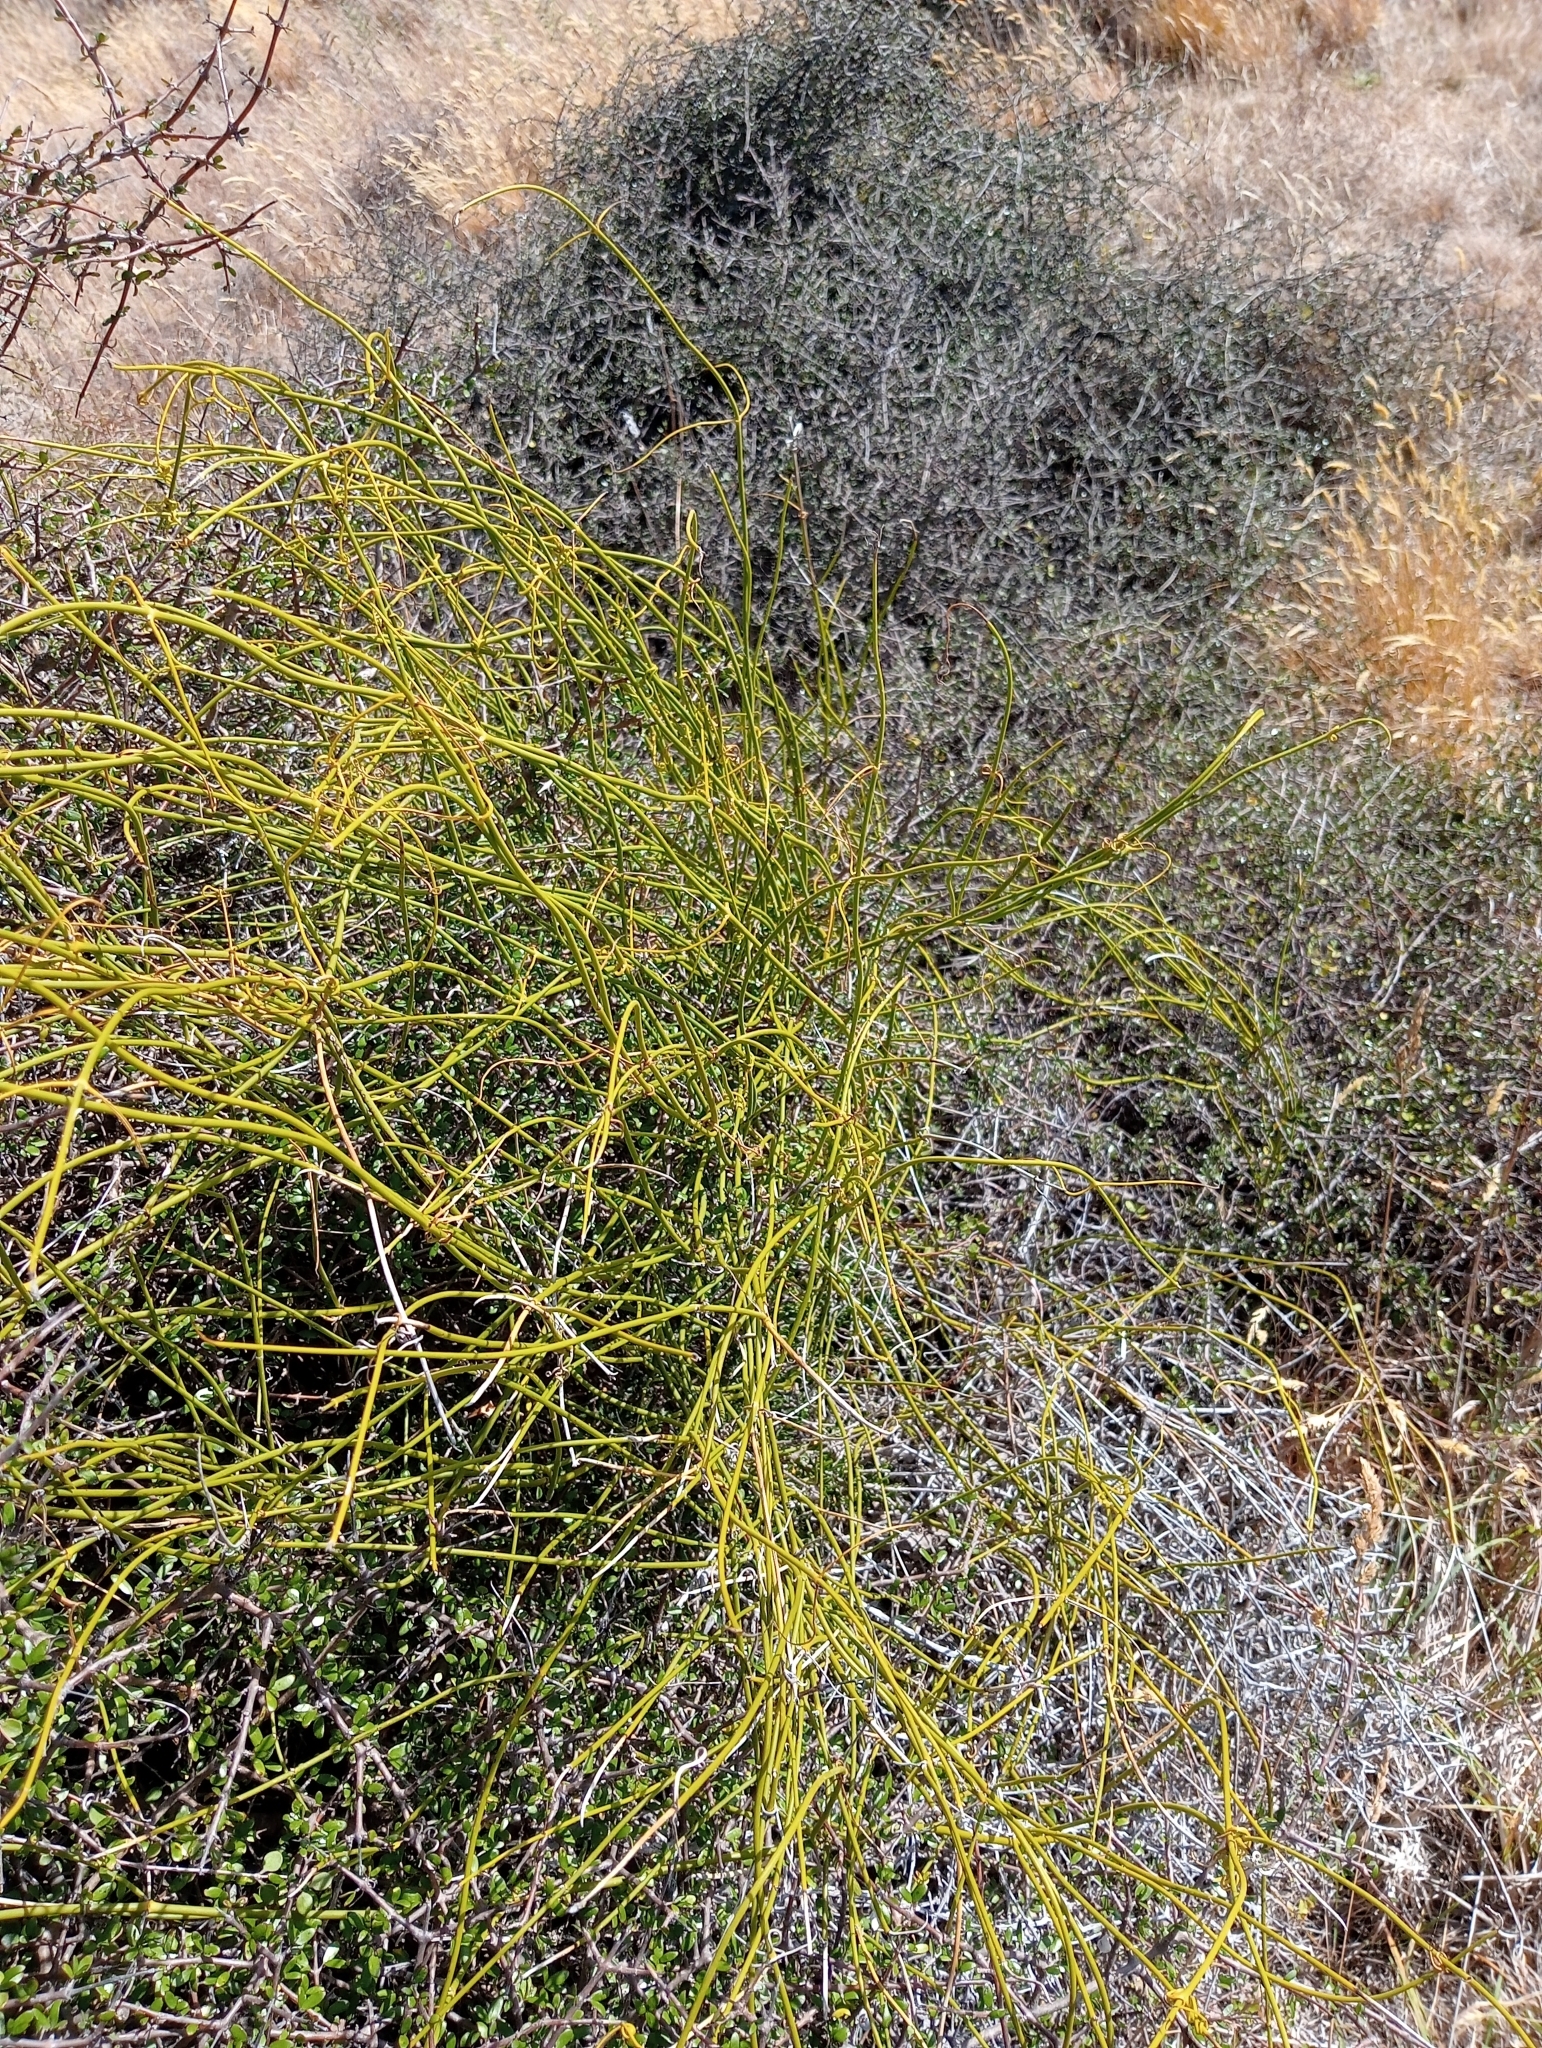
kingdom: Plantae
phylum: Tracheophyta
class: Magnoliopsida
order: Ranunculales
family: Ranunculaceae
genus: Clematis
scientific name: Clematis afoliata
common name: Rush-stem clematis
